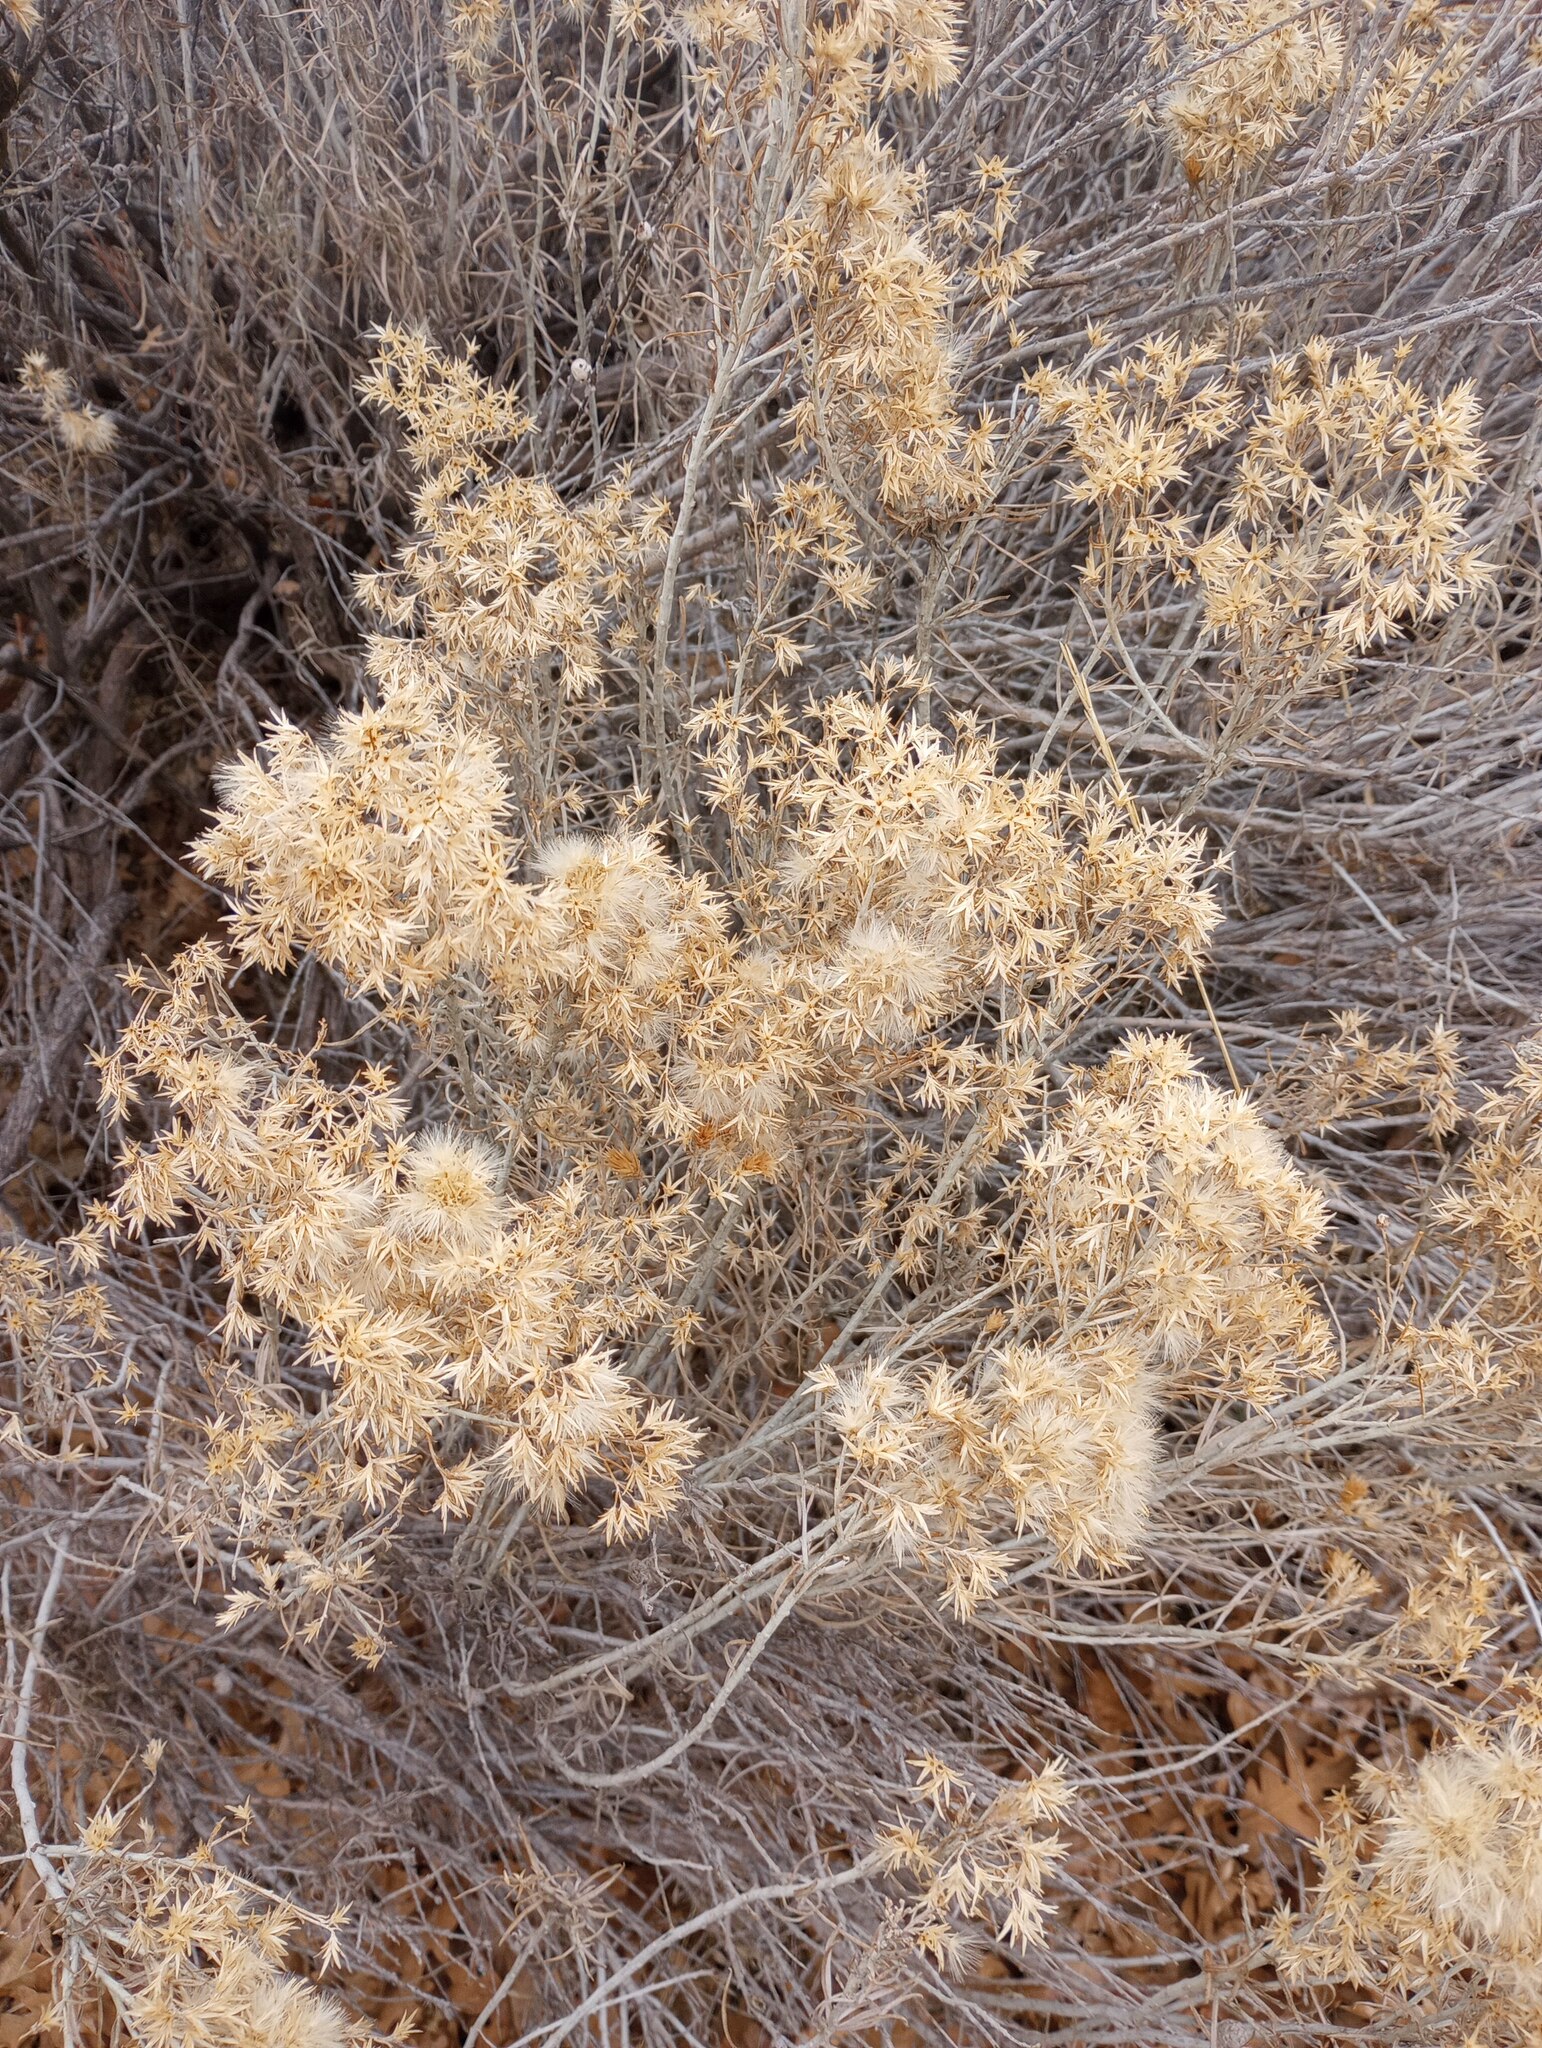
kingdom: Plantae
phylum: Tracheophyta
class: Magnoliopsida
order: Asterales
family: Asteraceae
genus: Ericameria
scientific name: Ericameria nauseosa
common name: Rubber rabbitbrush
